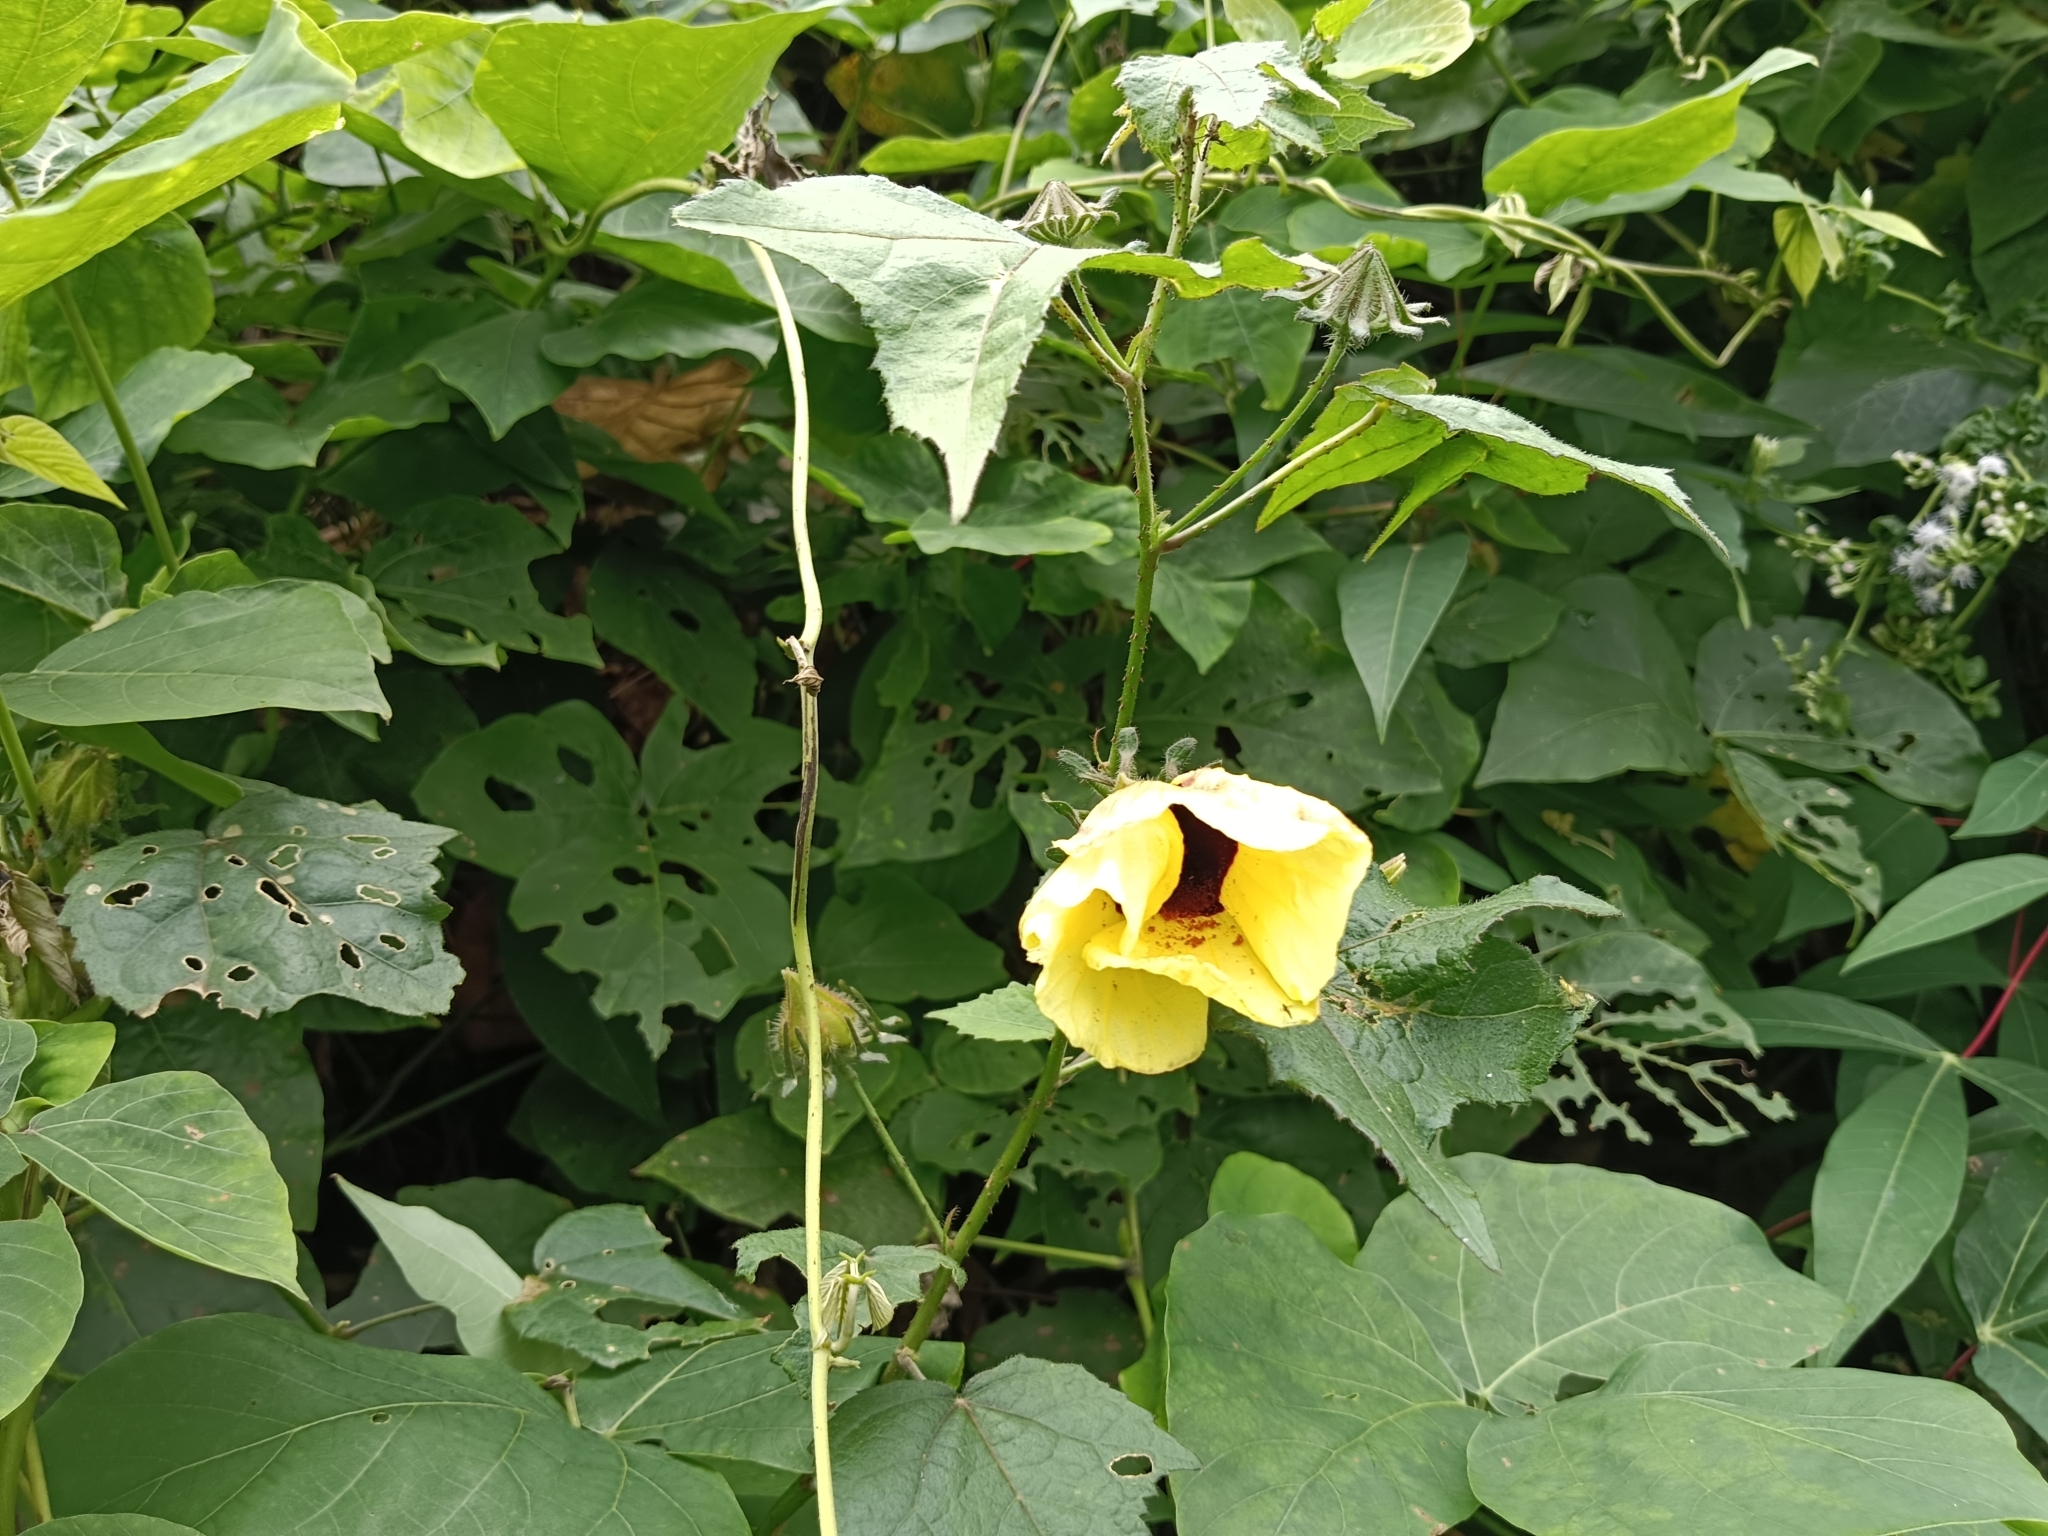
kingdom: Plantae
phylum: Tracheophyta
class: Magnoliopsida
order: Malvales
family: Malvaceae
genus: Hibiscus
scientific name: Hibiscus surattensis
